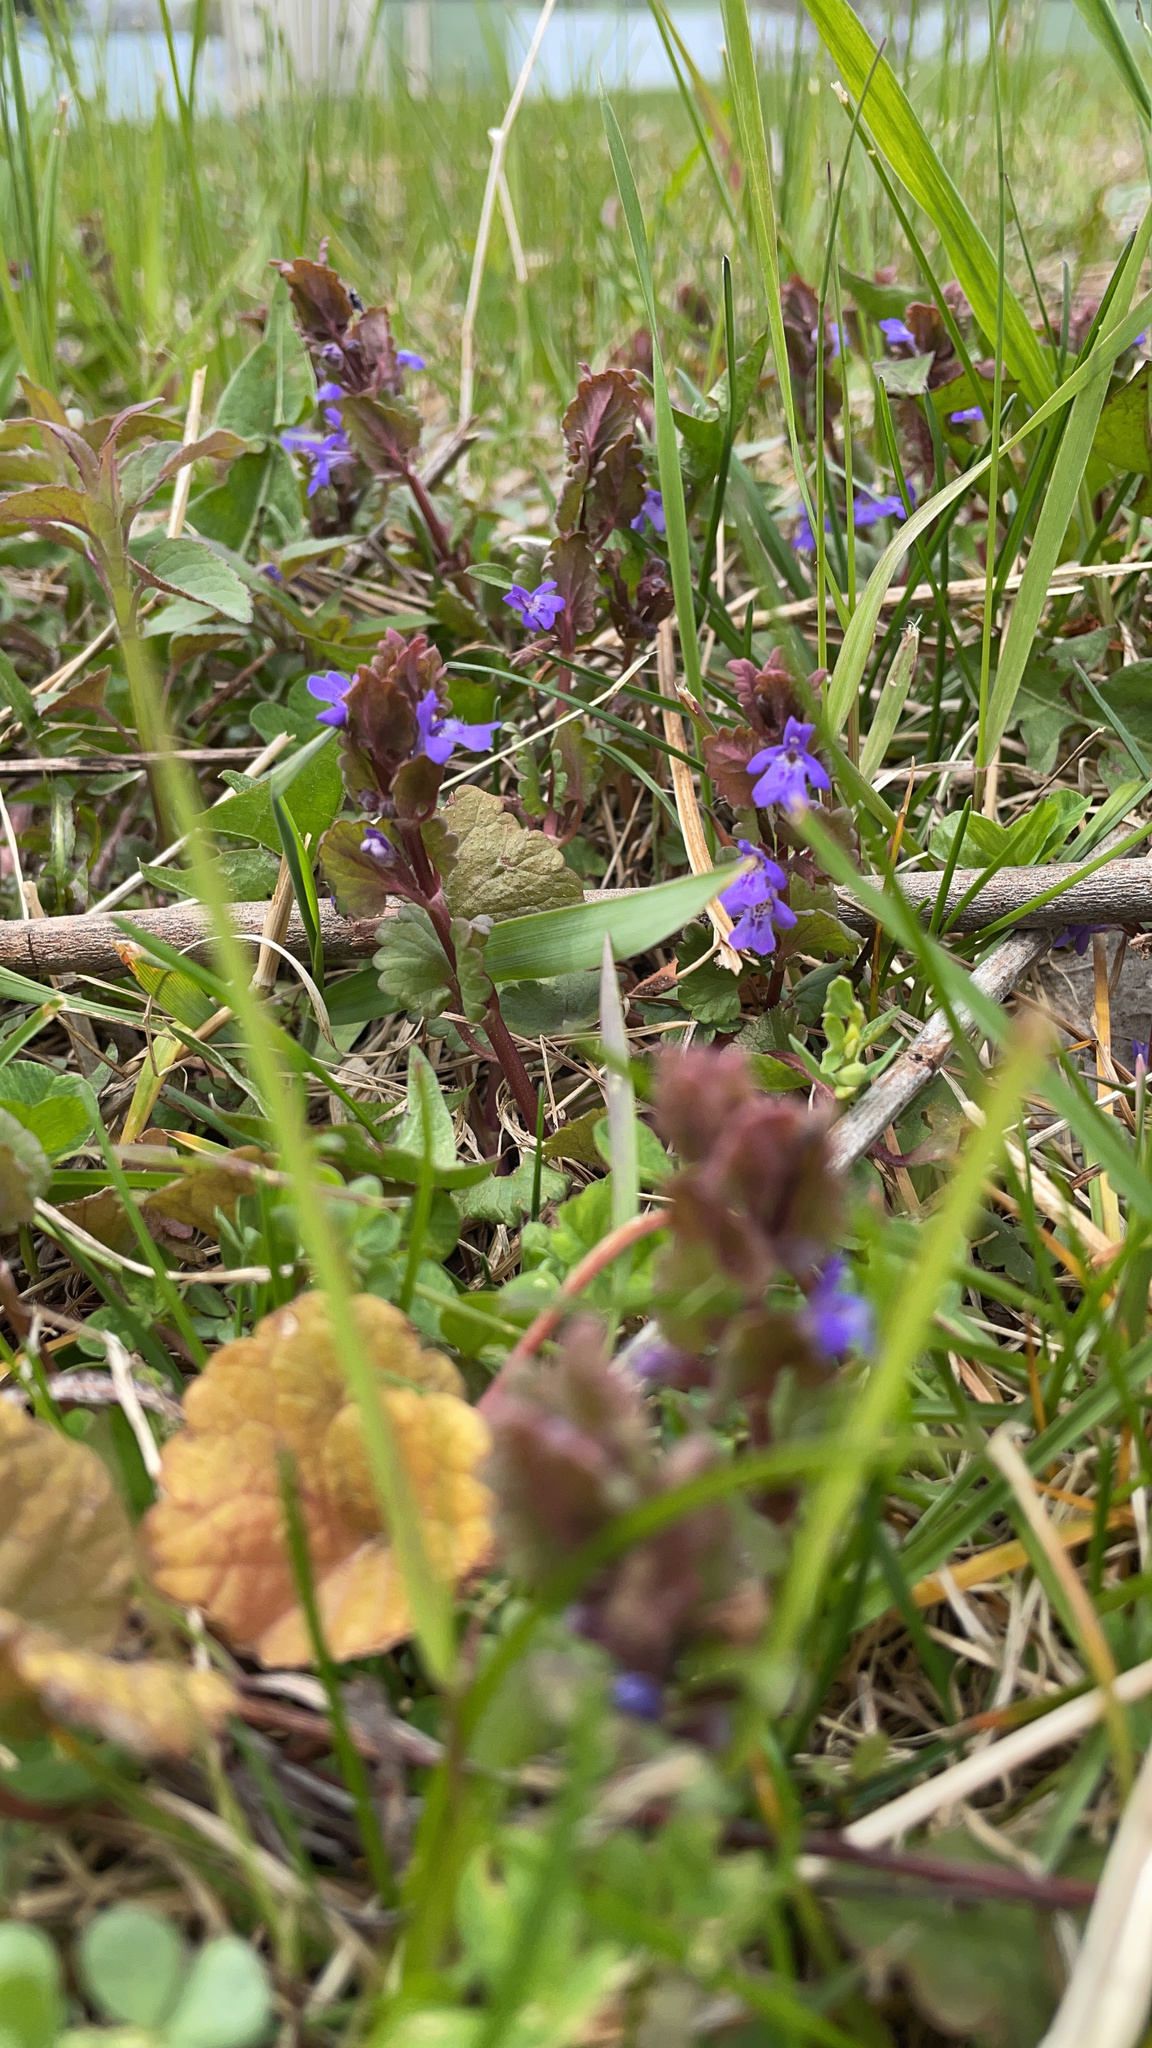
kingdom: Plantae
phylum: Tracheophyta
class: Magnoliopsida
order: Lamiales
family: Lamiaceae
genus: Glechoma
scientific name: Glechoma hederacea
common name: Ground ivy
